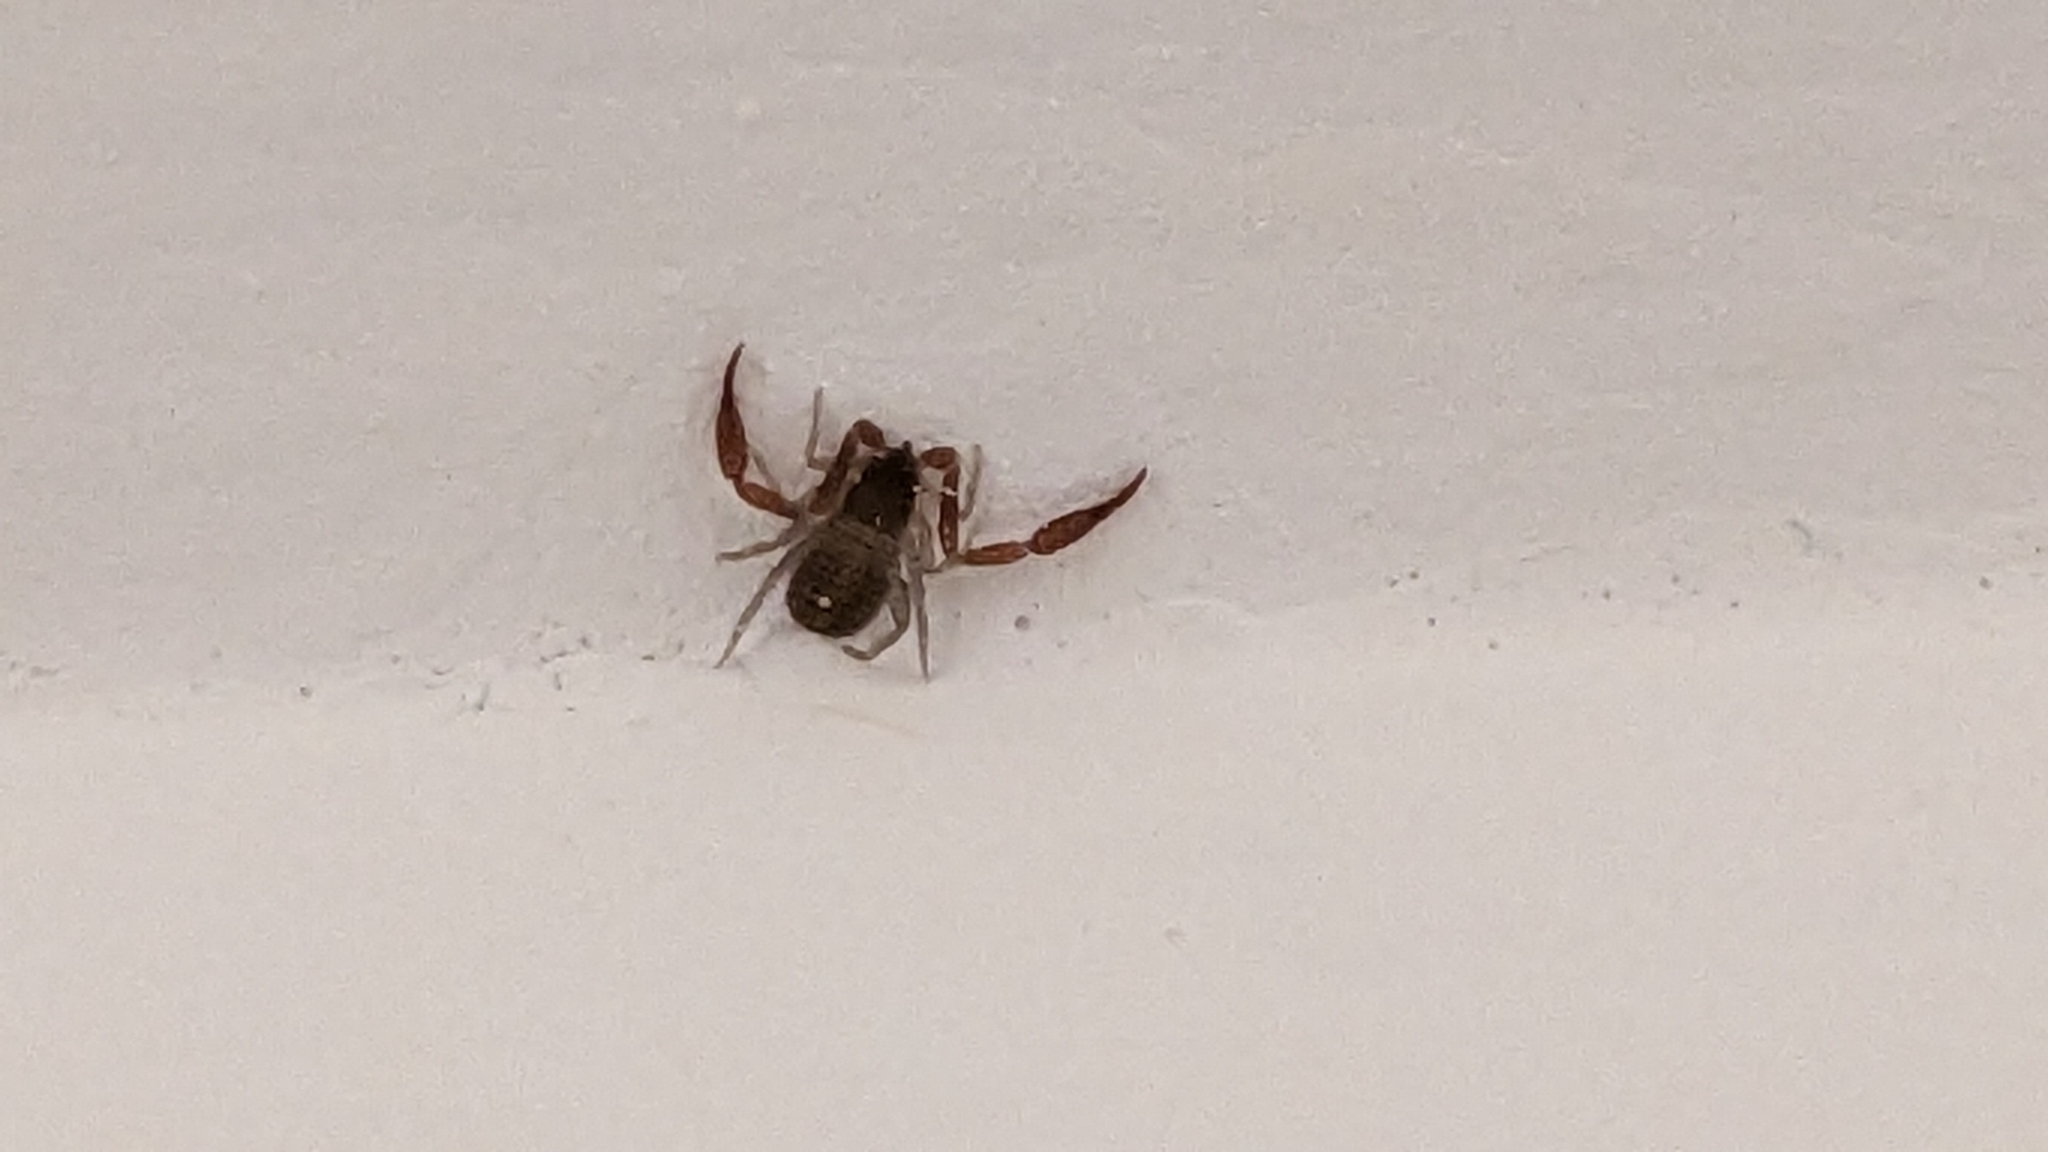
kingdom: Animalia
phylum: Arthropoda
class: Arachnida
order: Pseudoscorpiones
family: Cheliferidae
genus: Chelifer
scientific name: Chelifer cancroides
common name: House false-scorpion
